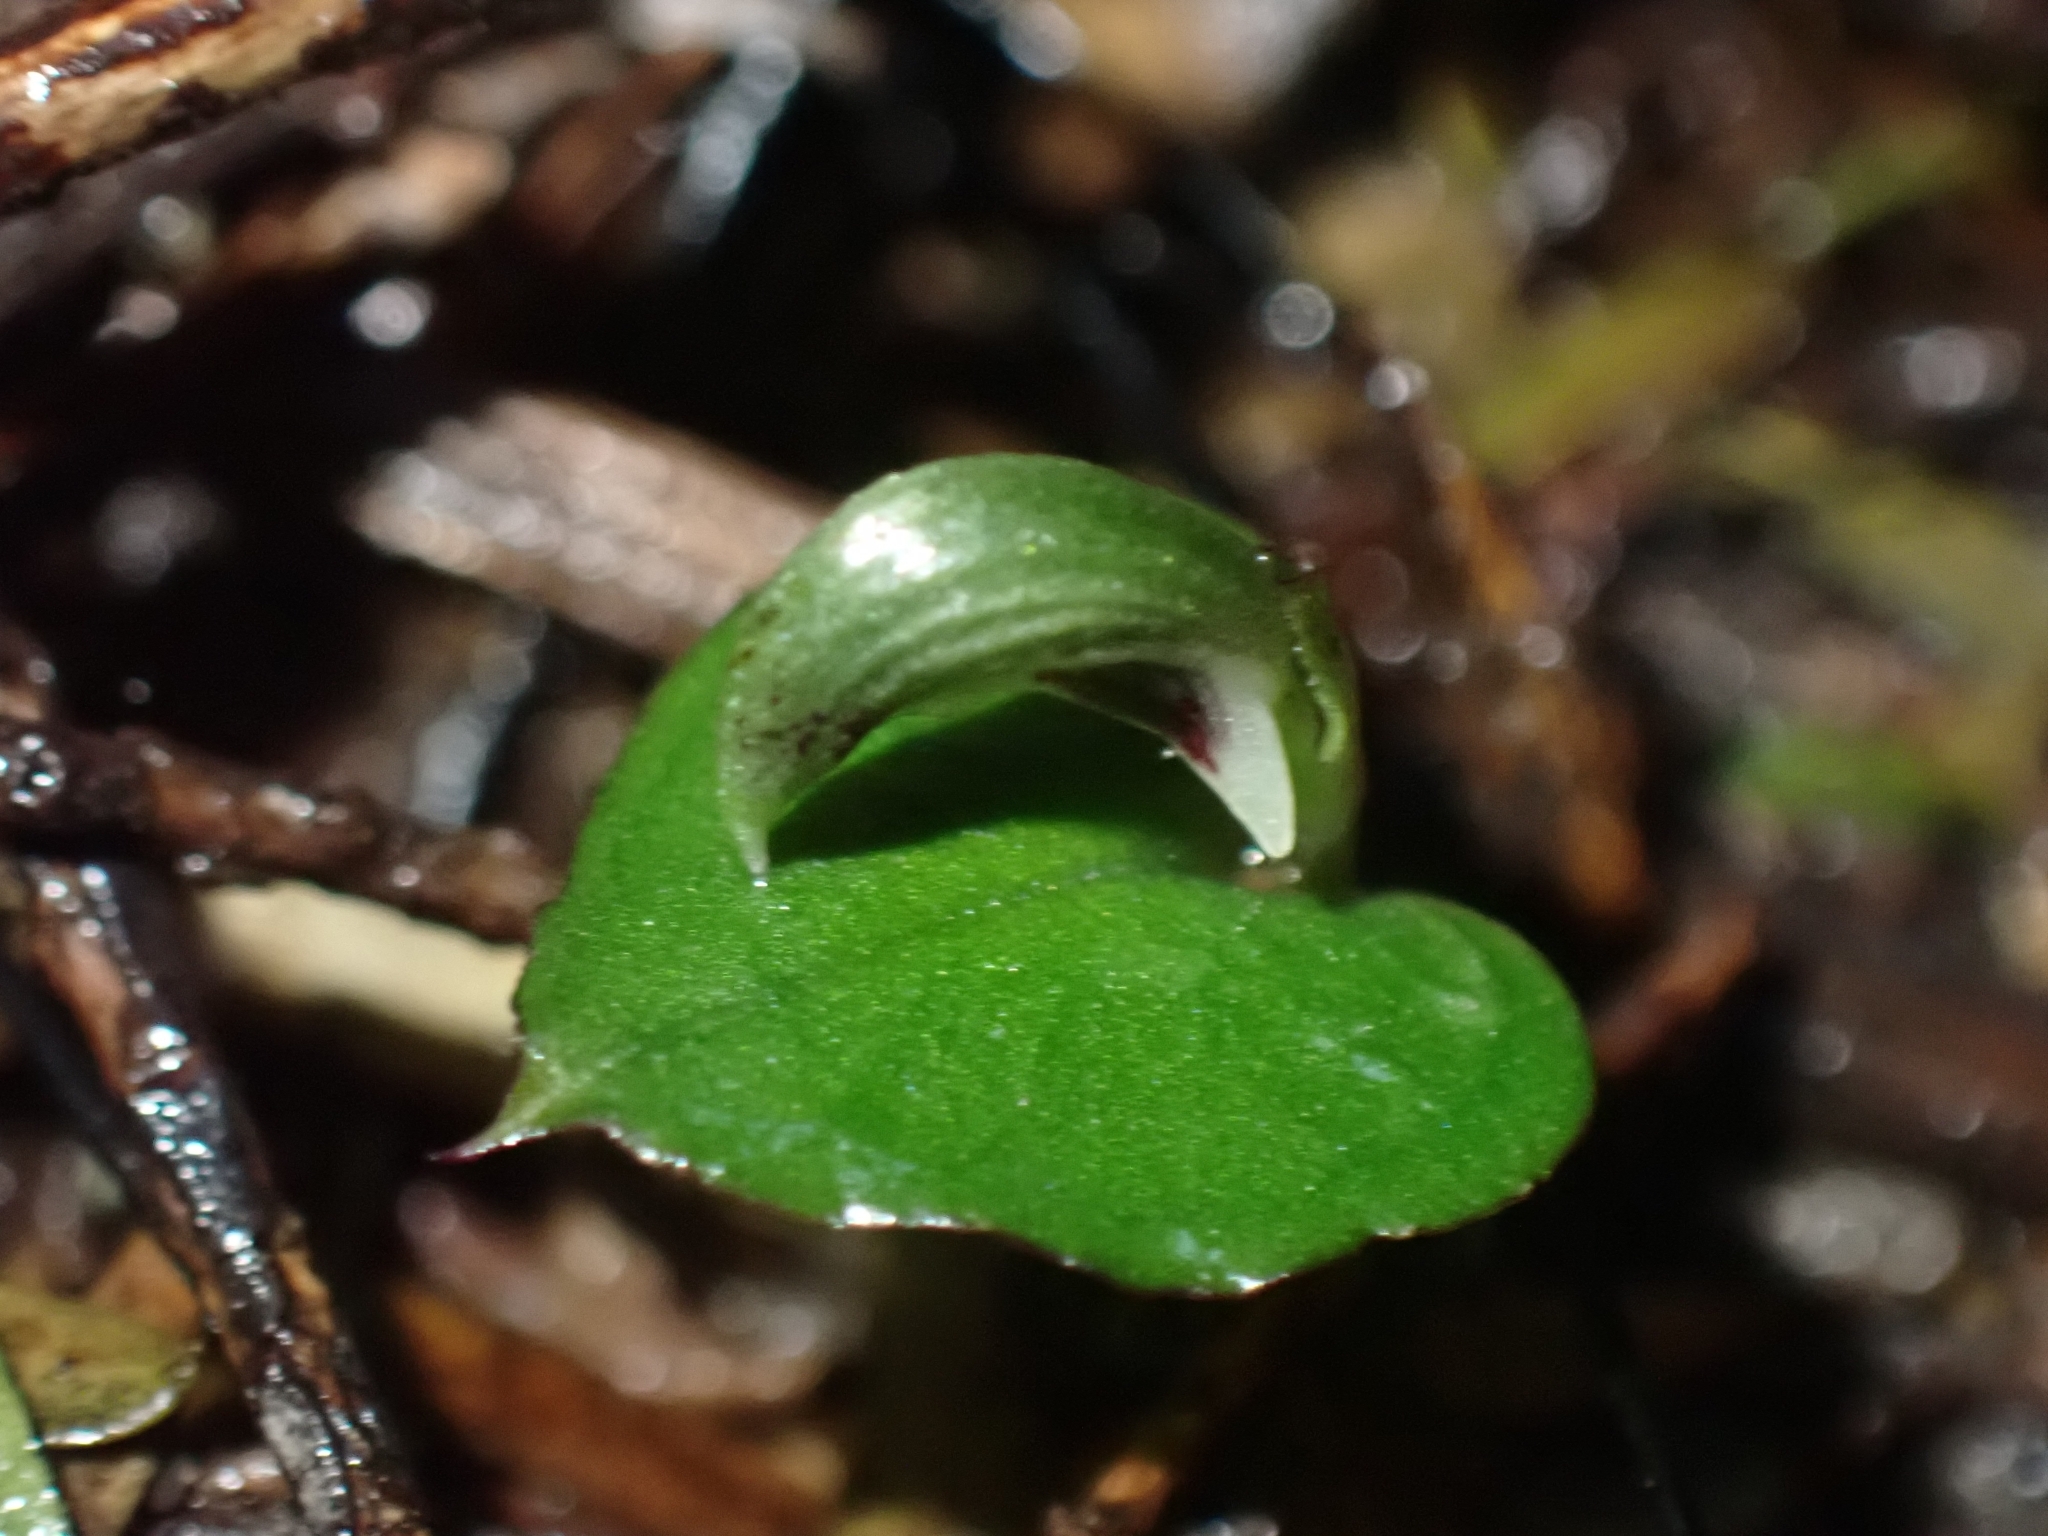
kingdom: Plantae
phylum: Tracheophyta
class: Liliopsida
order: Asparagales
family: Orchidaceae
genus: Corybas
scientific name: Corybas cheesemanii
